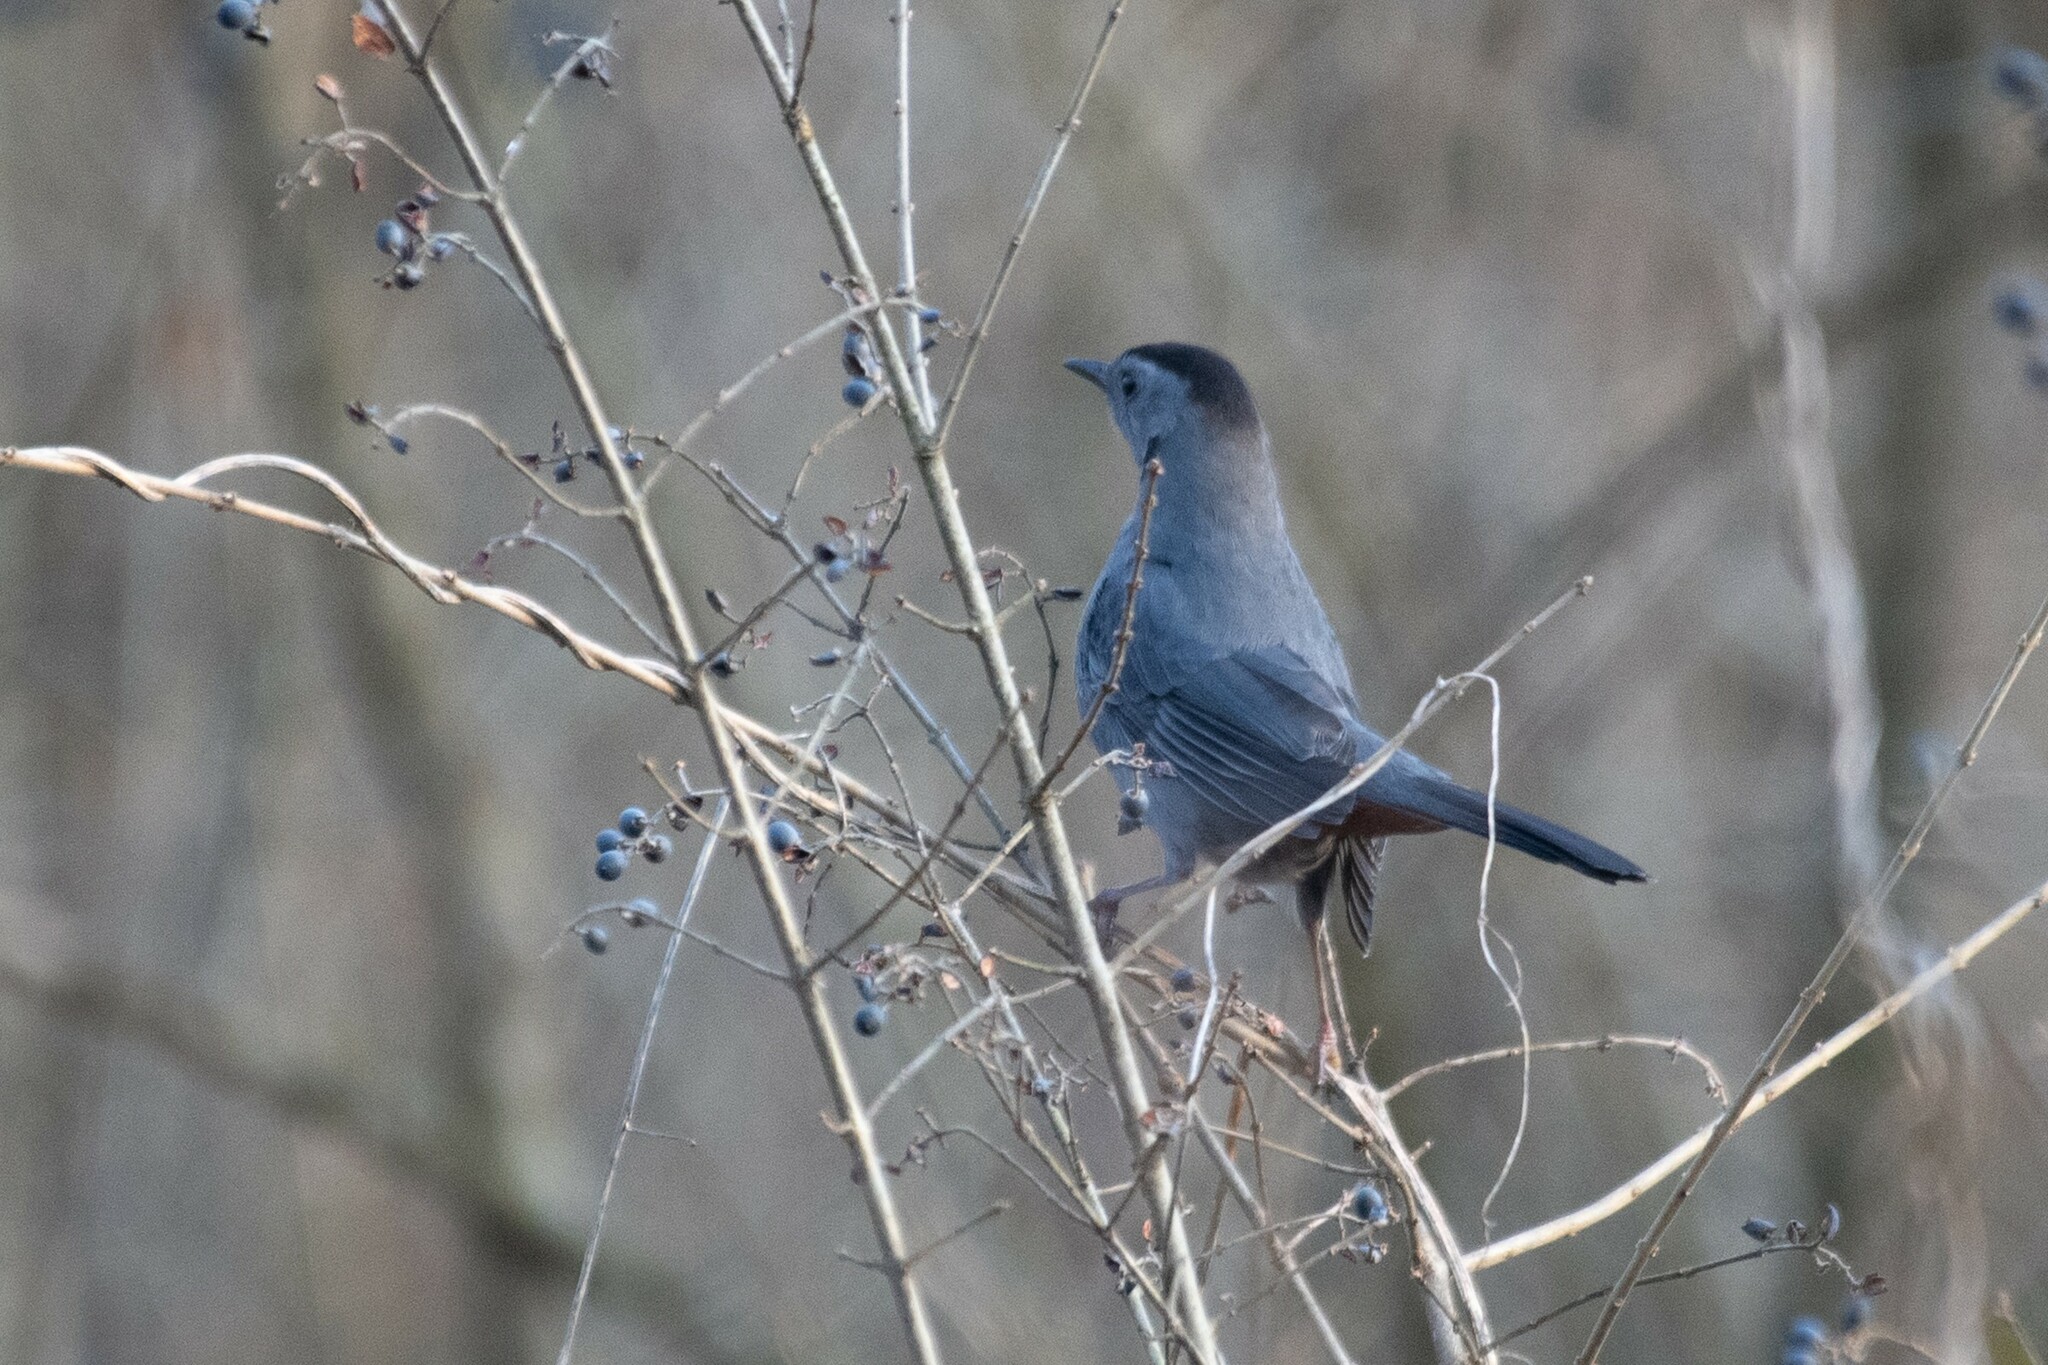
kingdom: Animalia
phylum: Chordata
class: Aves
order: Passeriformes
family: Mimidae
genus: Dumetella
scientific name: Dumetella carolinensis
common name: Gray catbird
